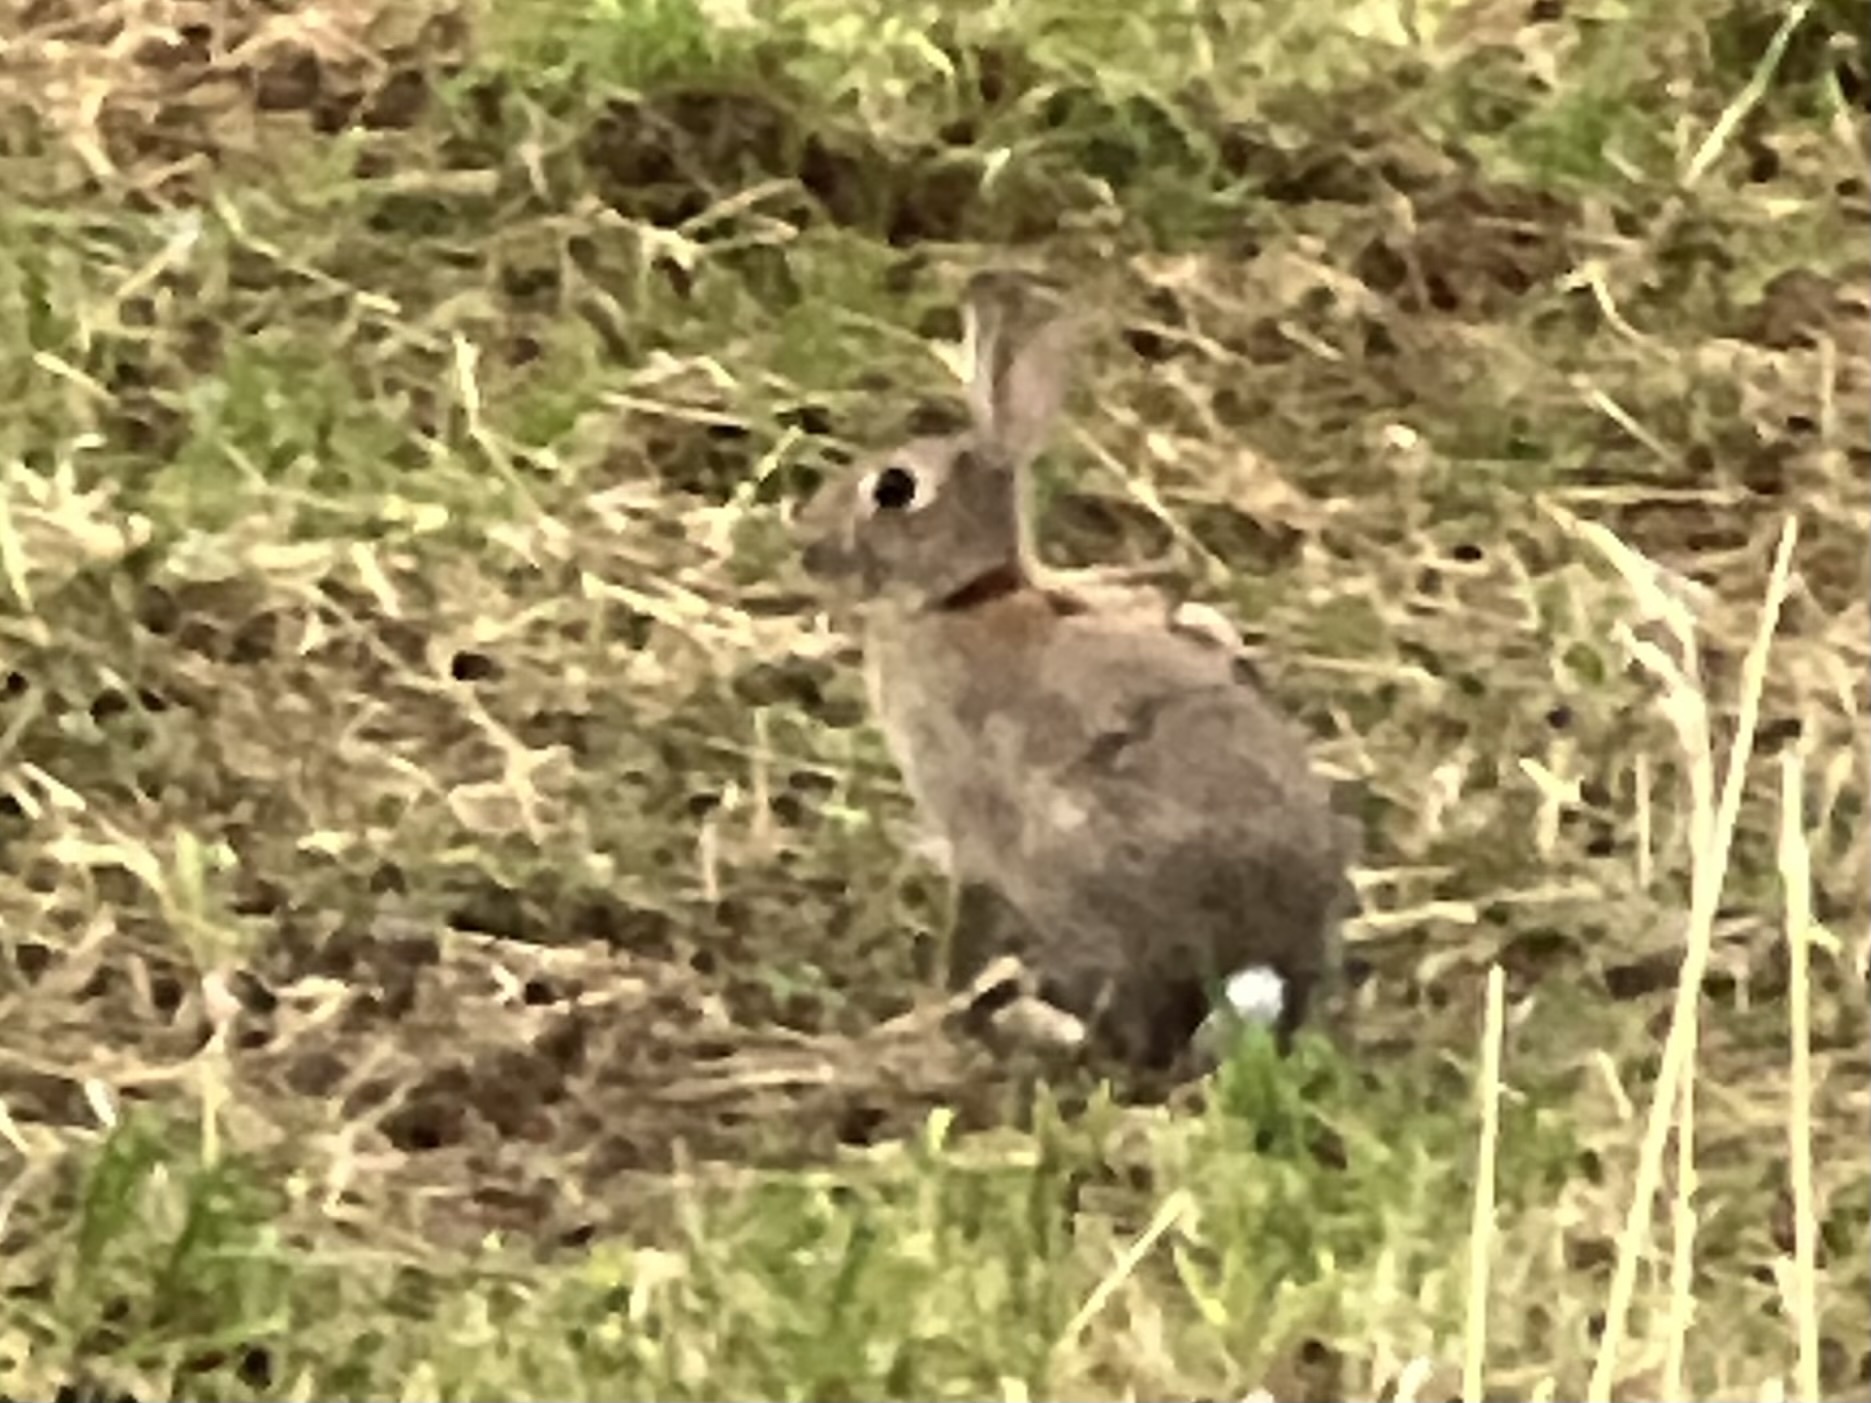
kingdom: Animalia
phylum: Chordata
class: Mammalia
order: Lagomorpha
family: Leporidae
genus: Oryctolagus
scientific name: Oryctolagus cuniculus
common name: European rabbit
